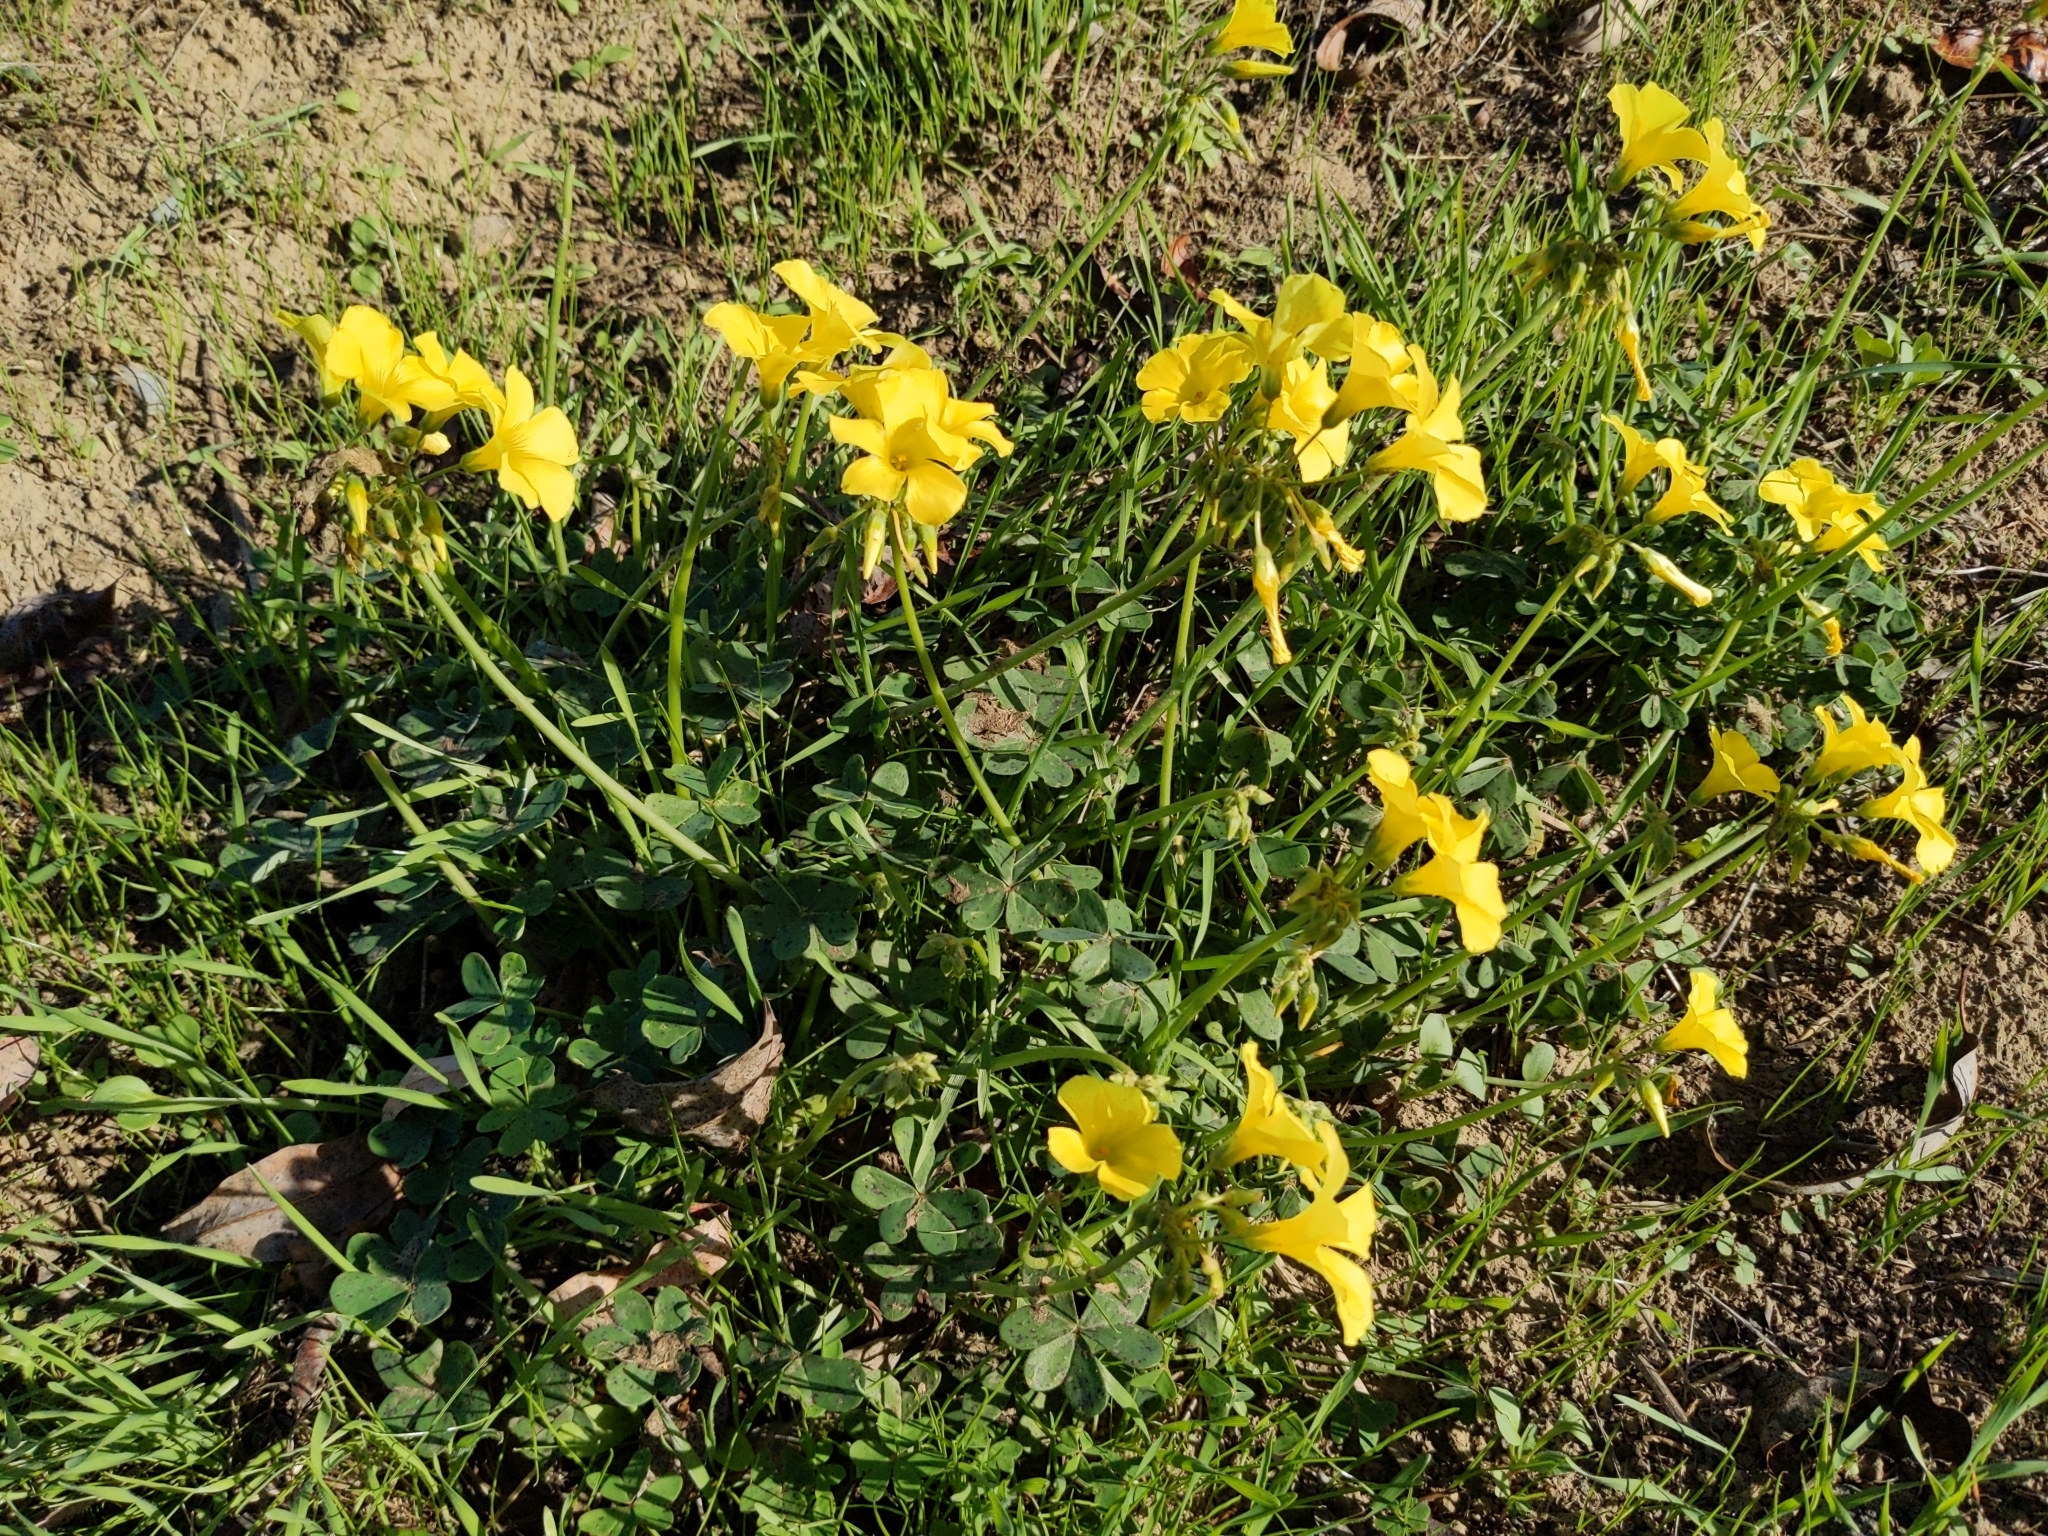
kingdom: Plantae
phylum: Tracheophyta
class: Magnoliopsida
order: Oxalidales
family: Oxalidaceae
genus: Oxalis
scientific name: Oxalis pes-caprae
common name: Bermuda-buttercup
